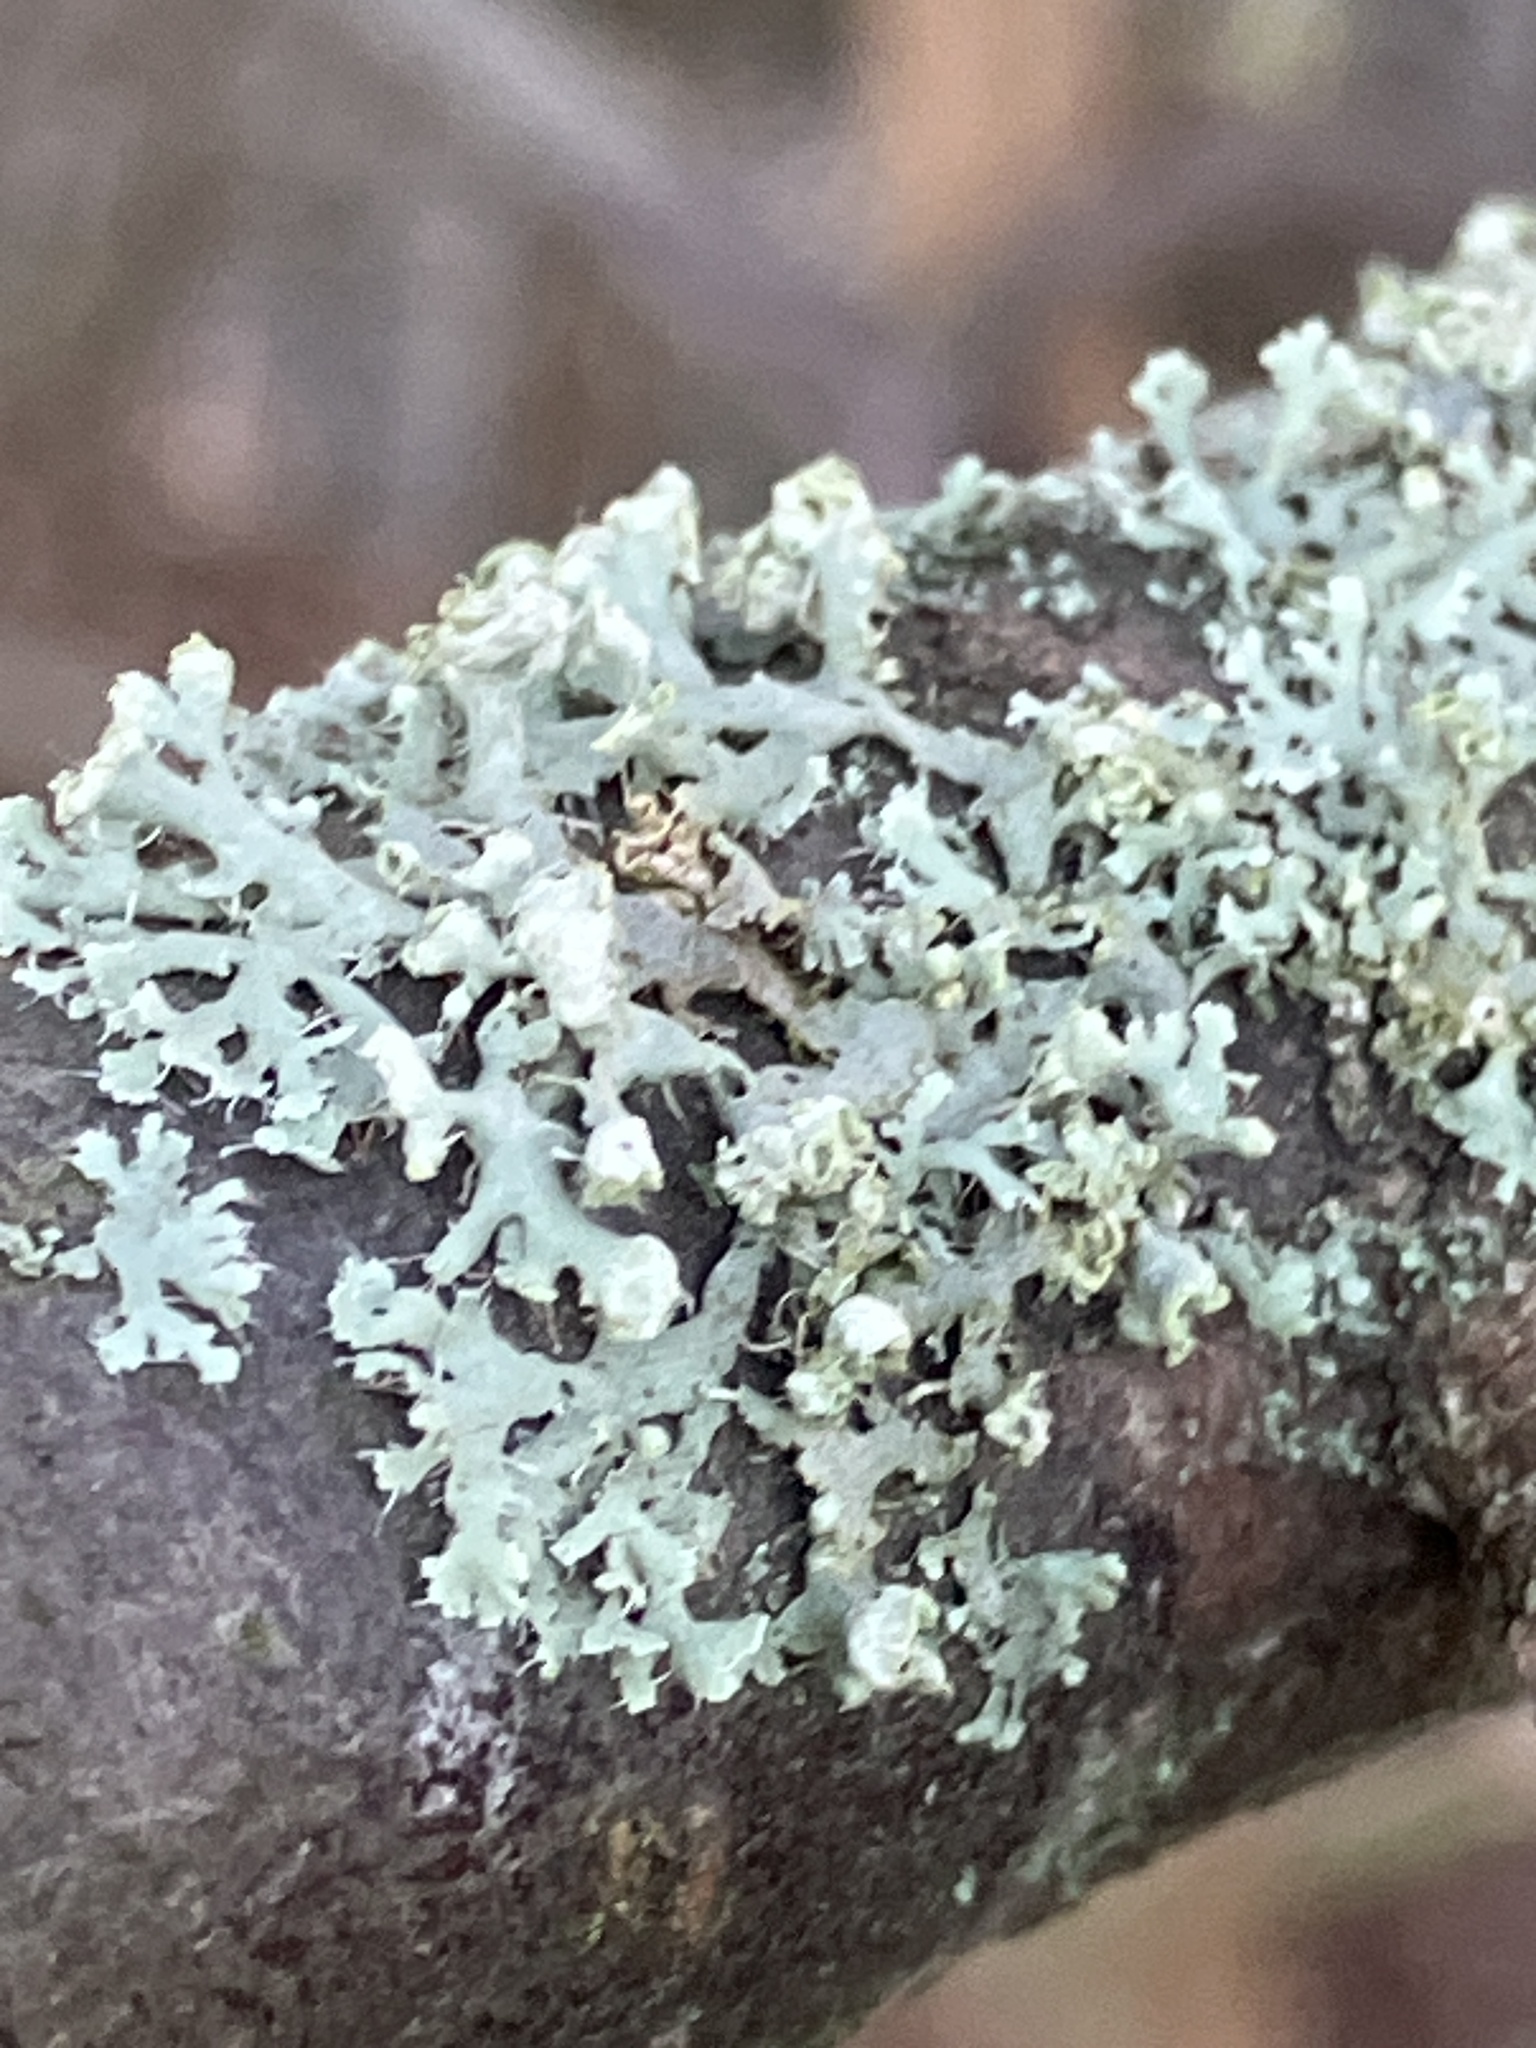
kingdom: Fungi
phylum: Ascomycota
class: Lecanoromycetes
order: Caliciales
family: Physciaceae
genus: Physcia
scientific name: Physcia adscendens
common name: Hooded rosette lichen
